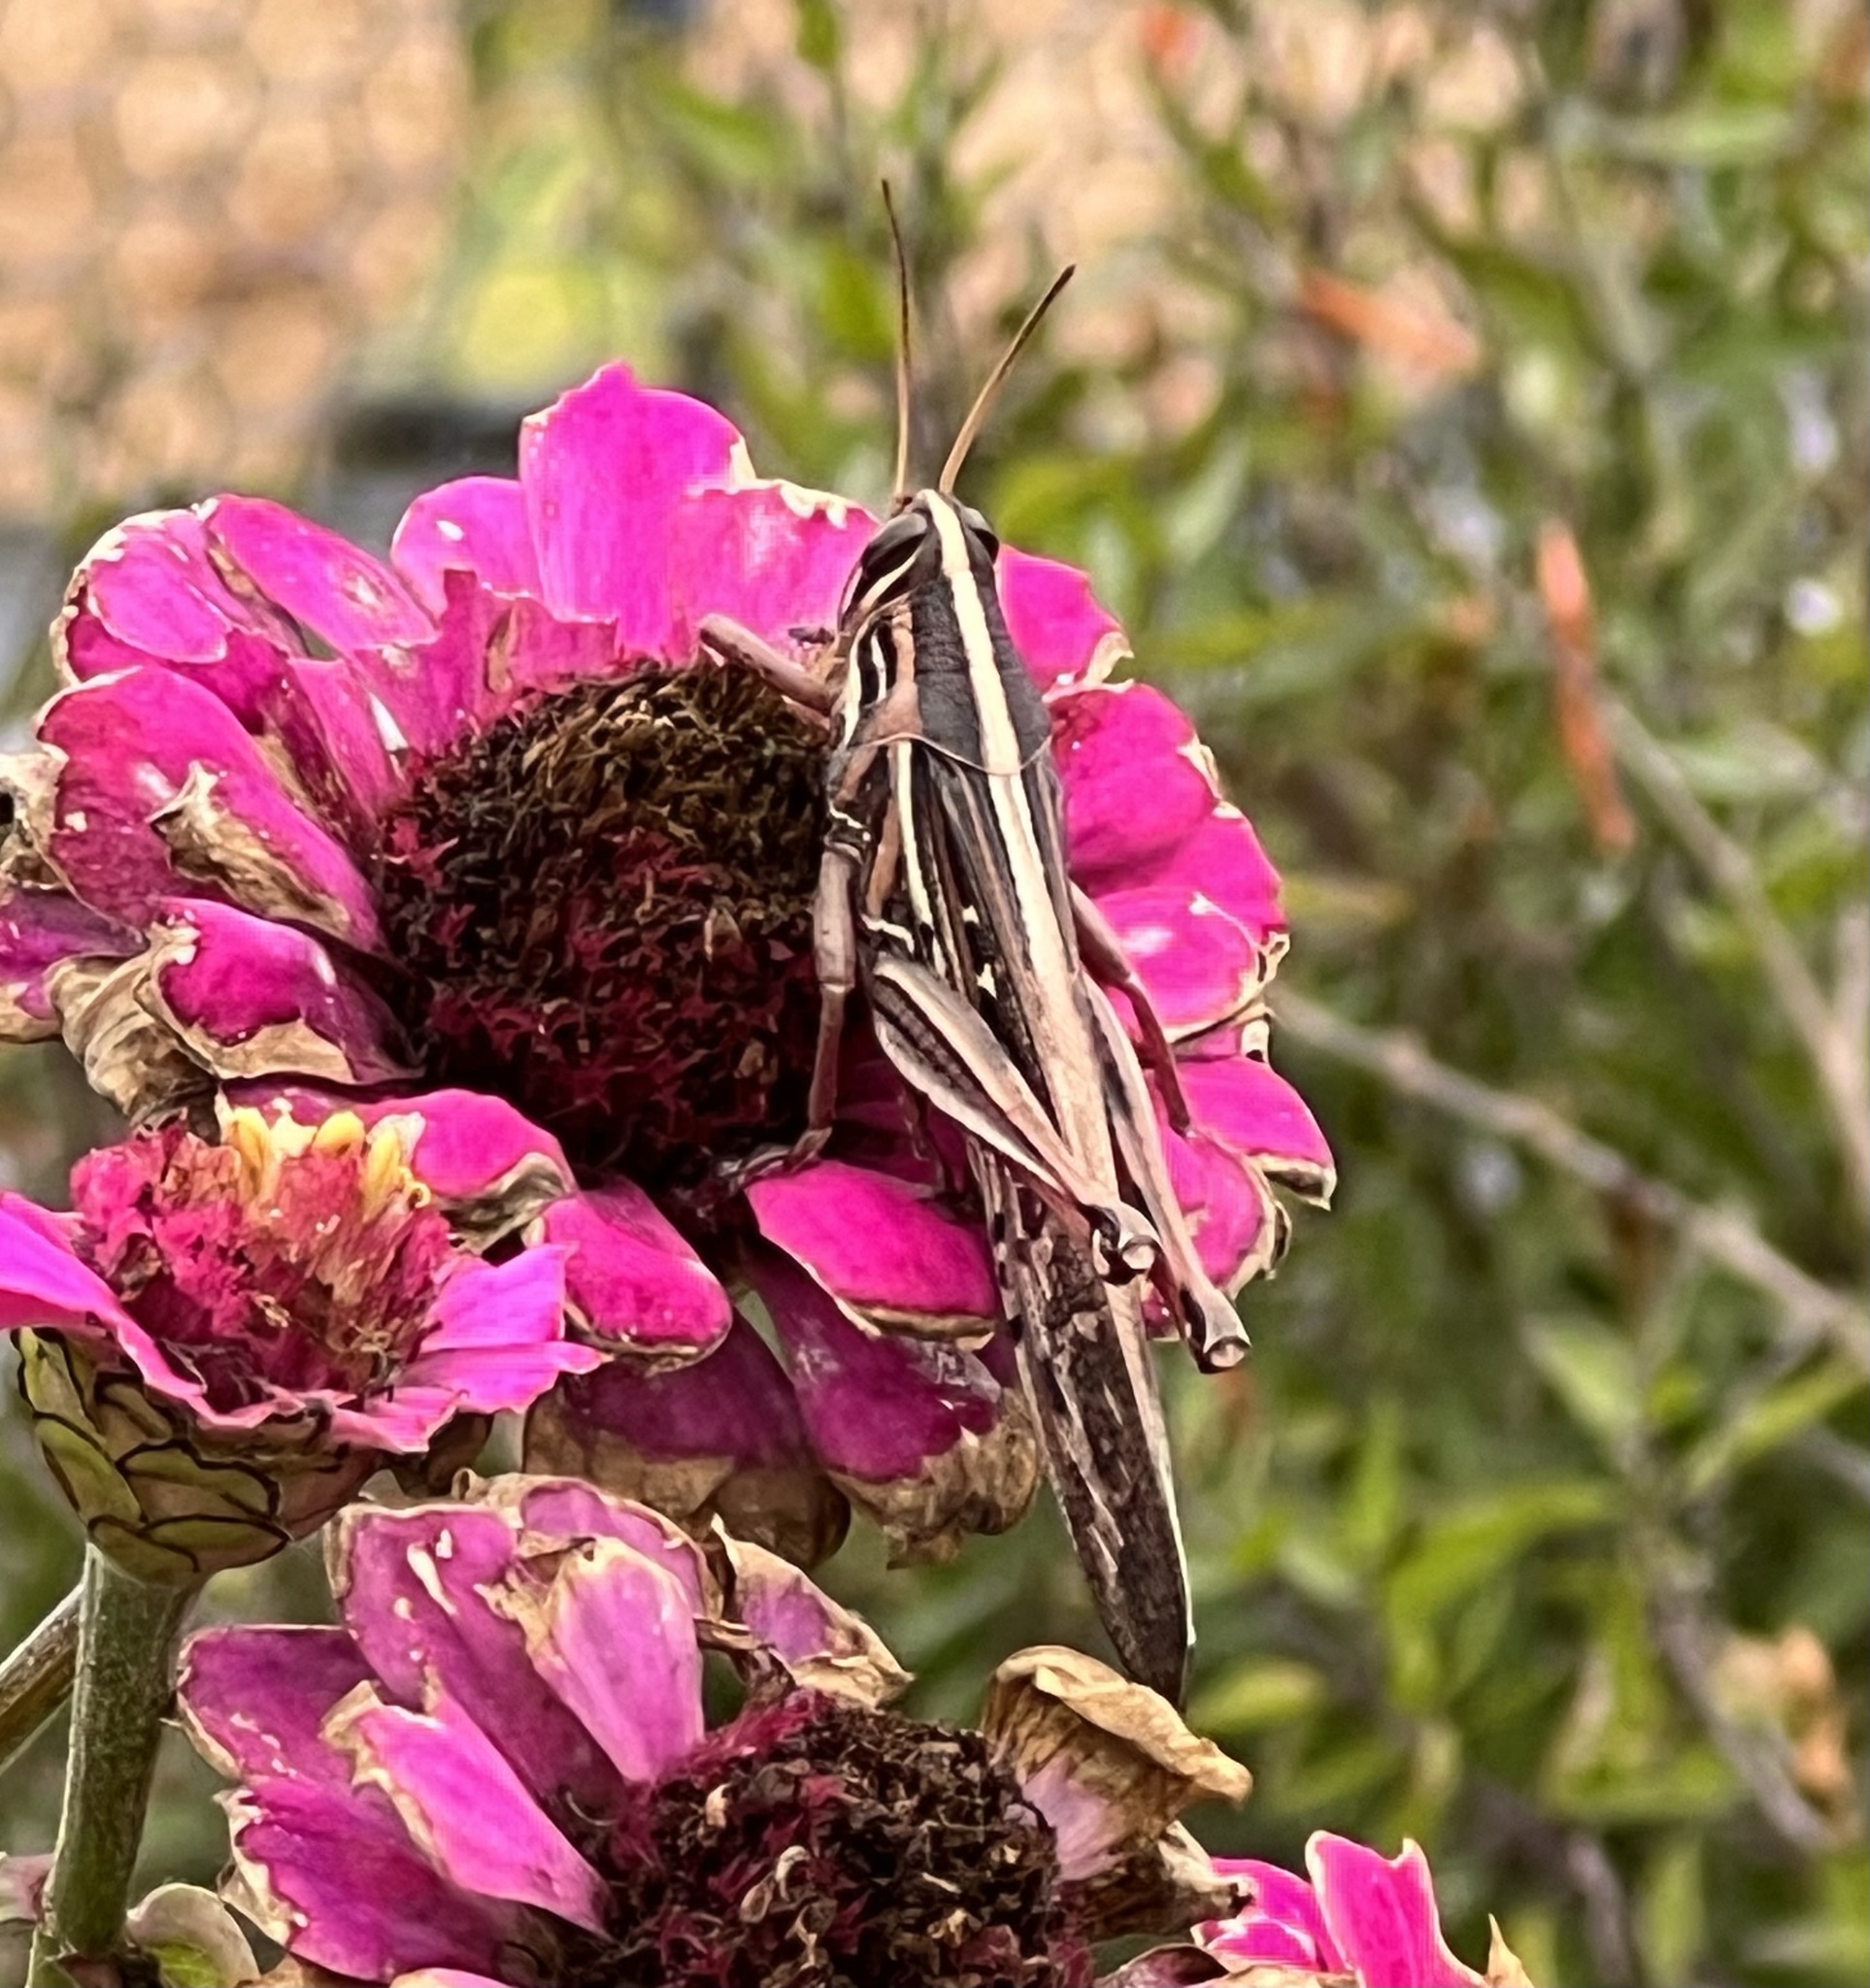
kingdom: Animalia
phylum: Arthropoda
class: Insecta
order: Orthoptera
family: Acrididae
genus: Schistocerca
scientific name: Schistocerca americana
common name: American bird locust
